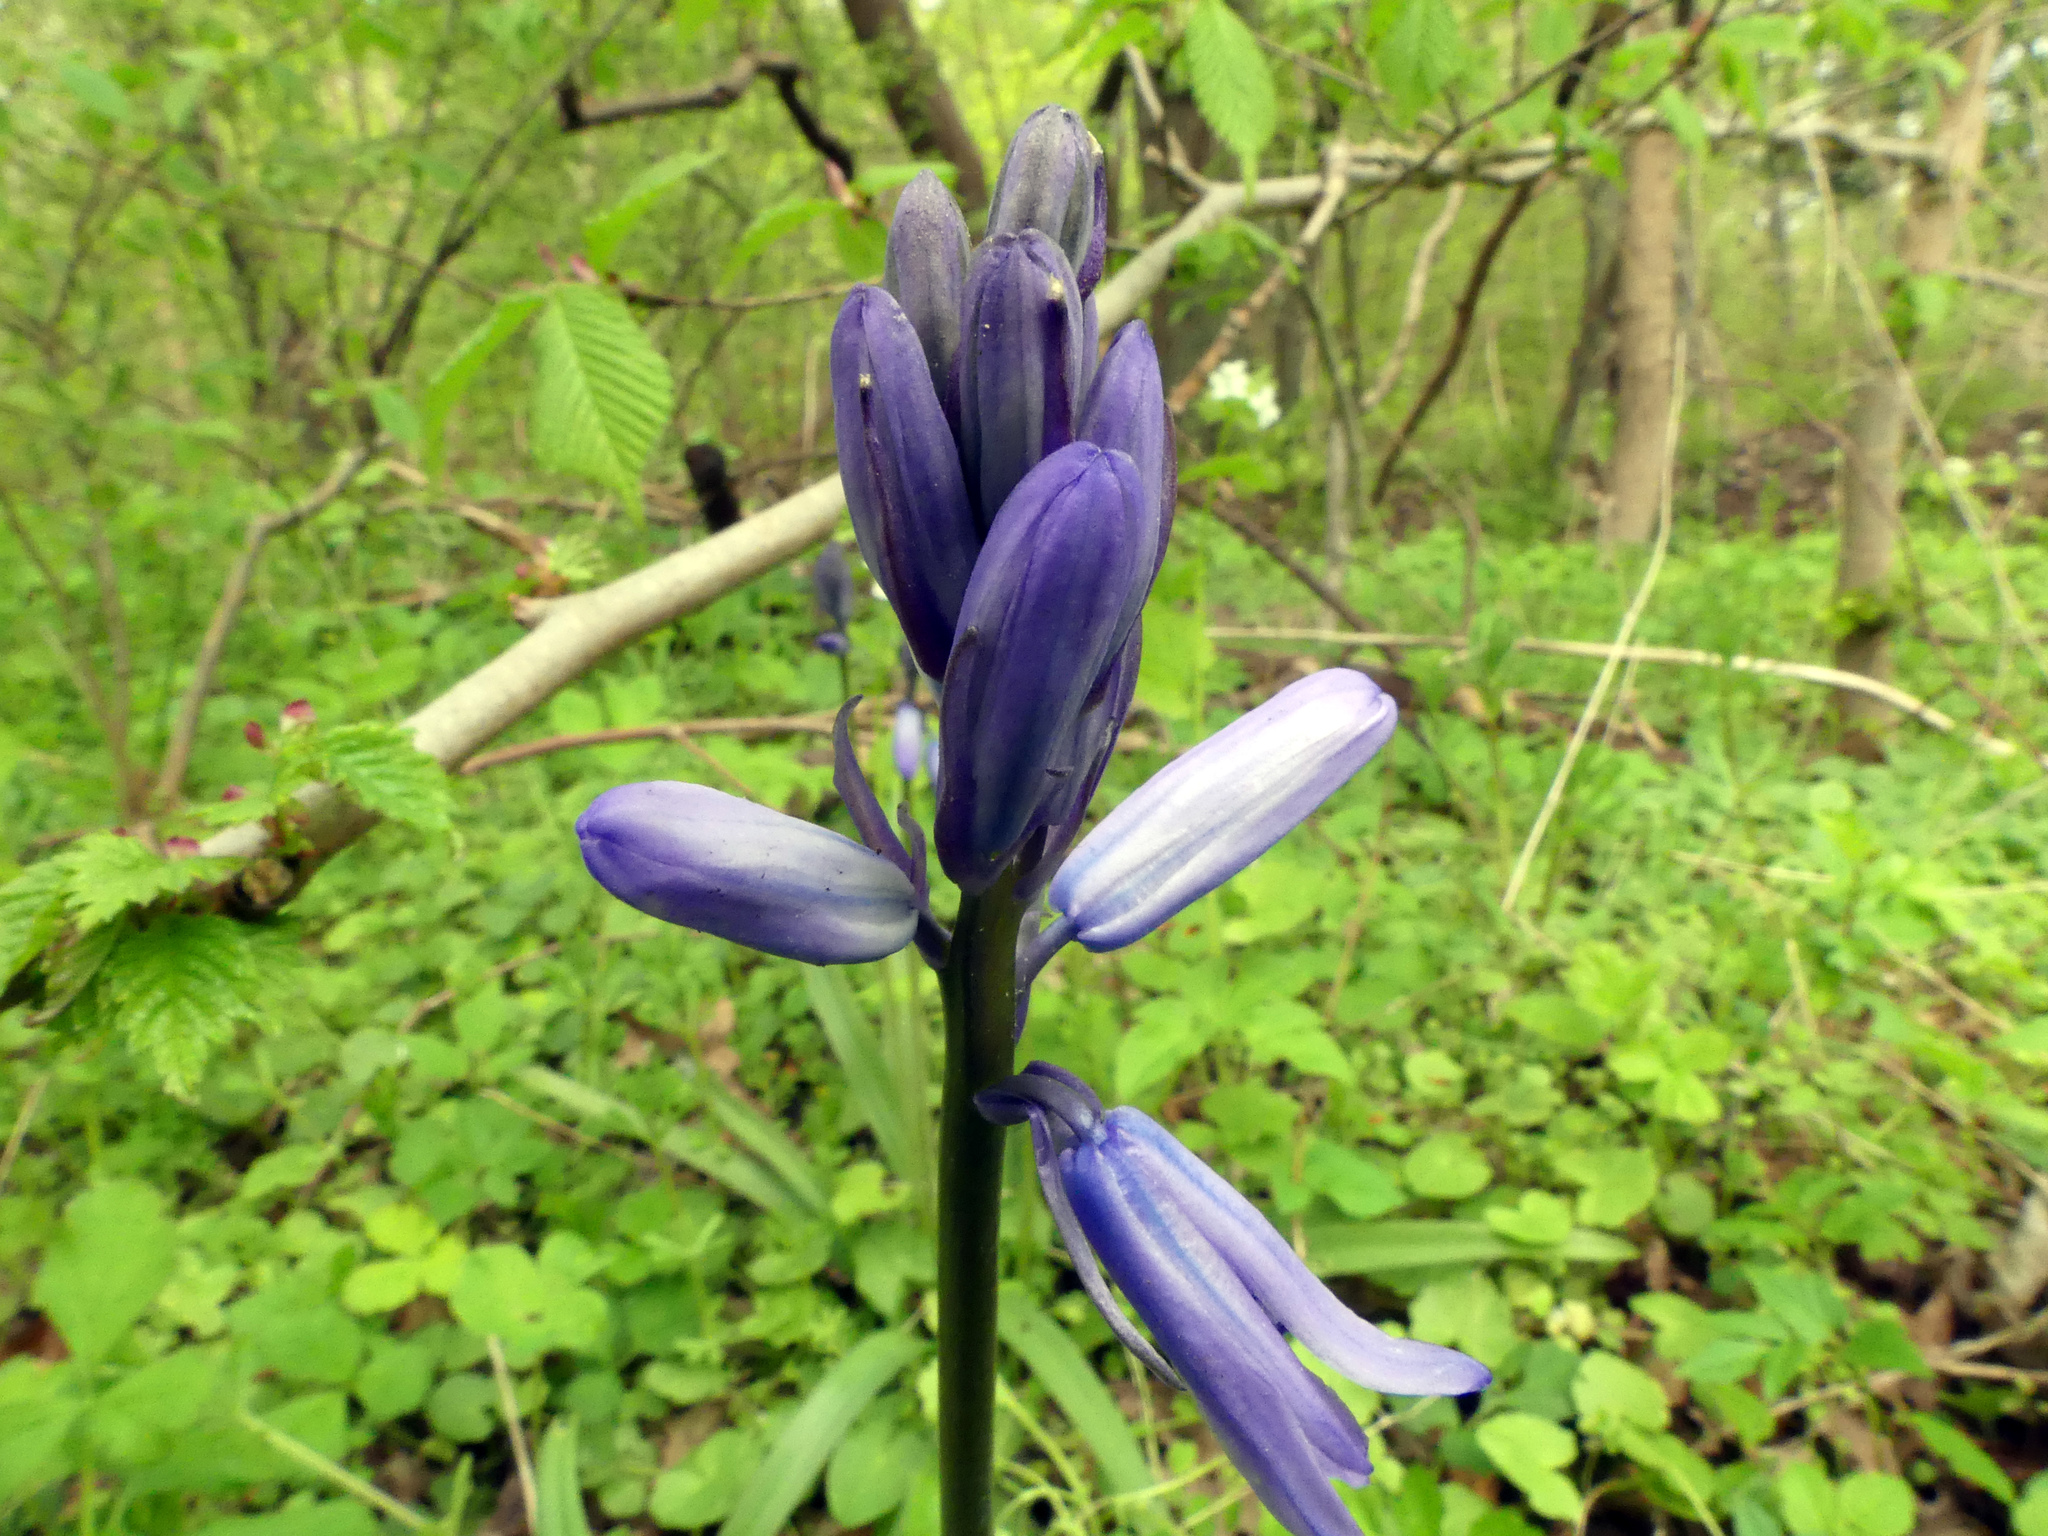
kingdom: Plantae
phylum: Tracheophyta
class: Liliopsida
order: Asparagales
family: Asparagaceae
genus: Hyacinthoides
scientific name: Hyacinthoides non-scripta
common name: Bluebell
